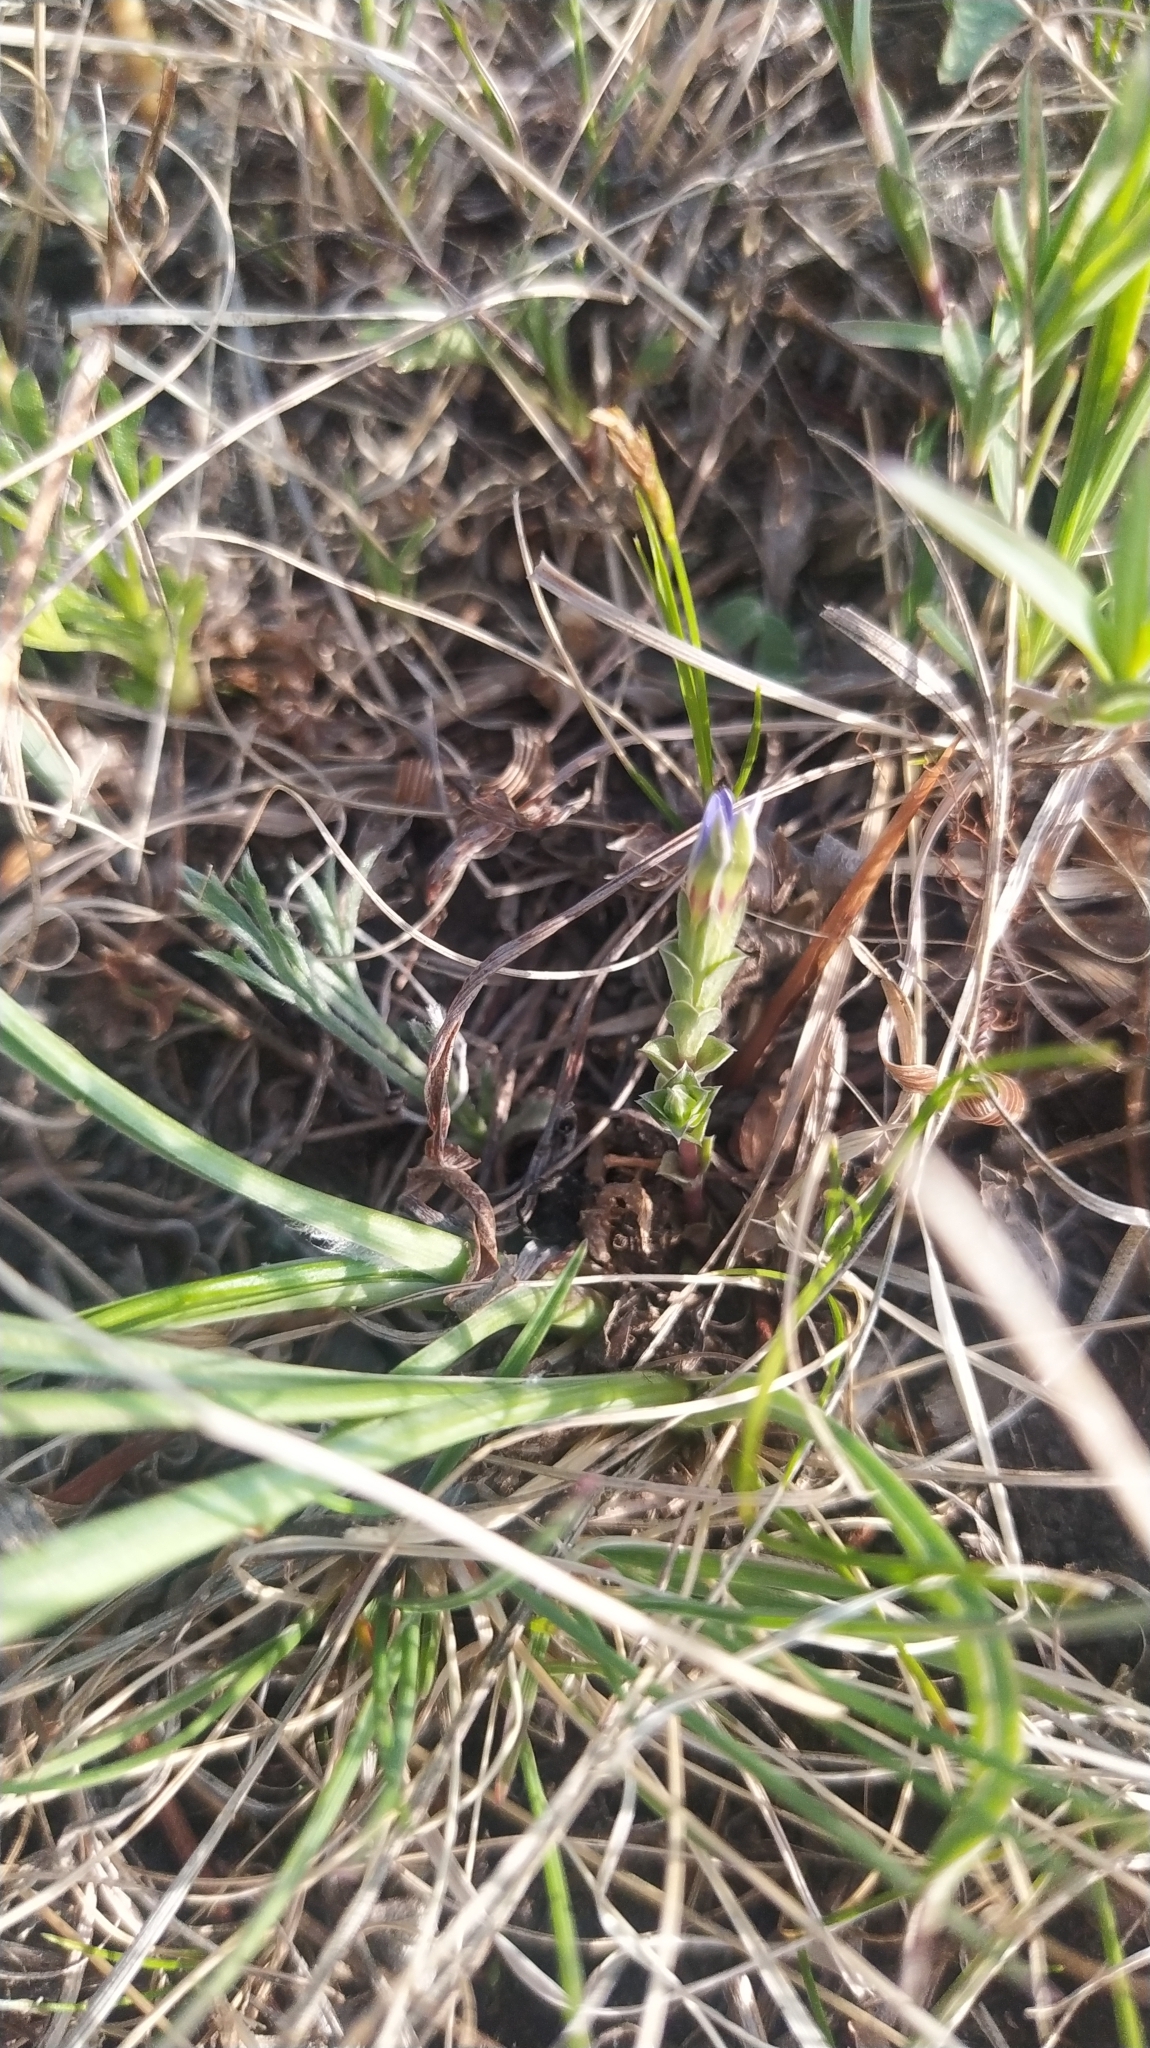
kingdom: Plantae
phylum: Tracheophyta
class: Magnoliopsida
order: Gentianales
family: Gentianaceae
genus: Gentiana
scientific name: Gentiana squarrosa
